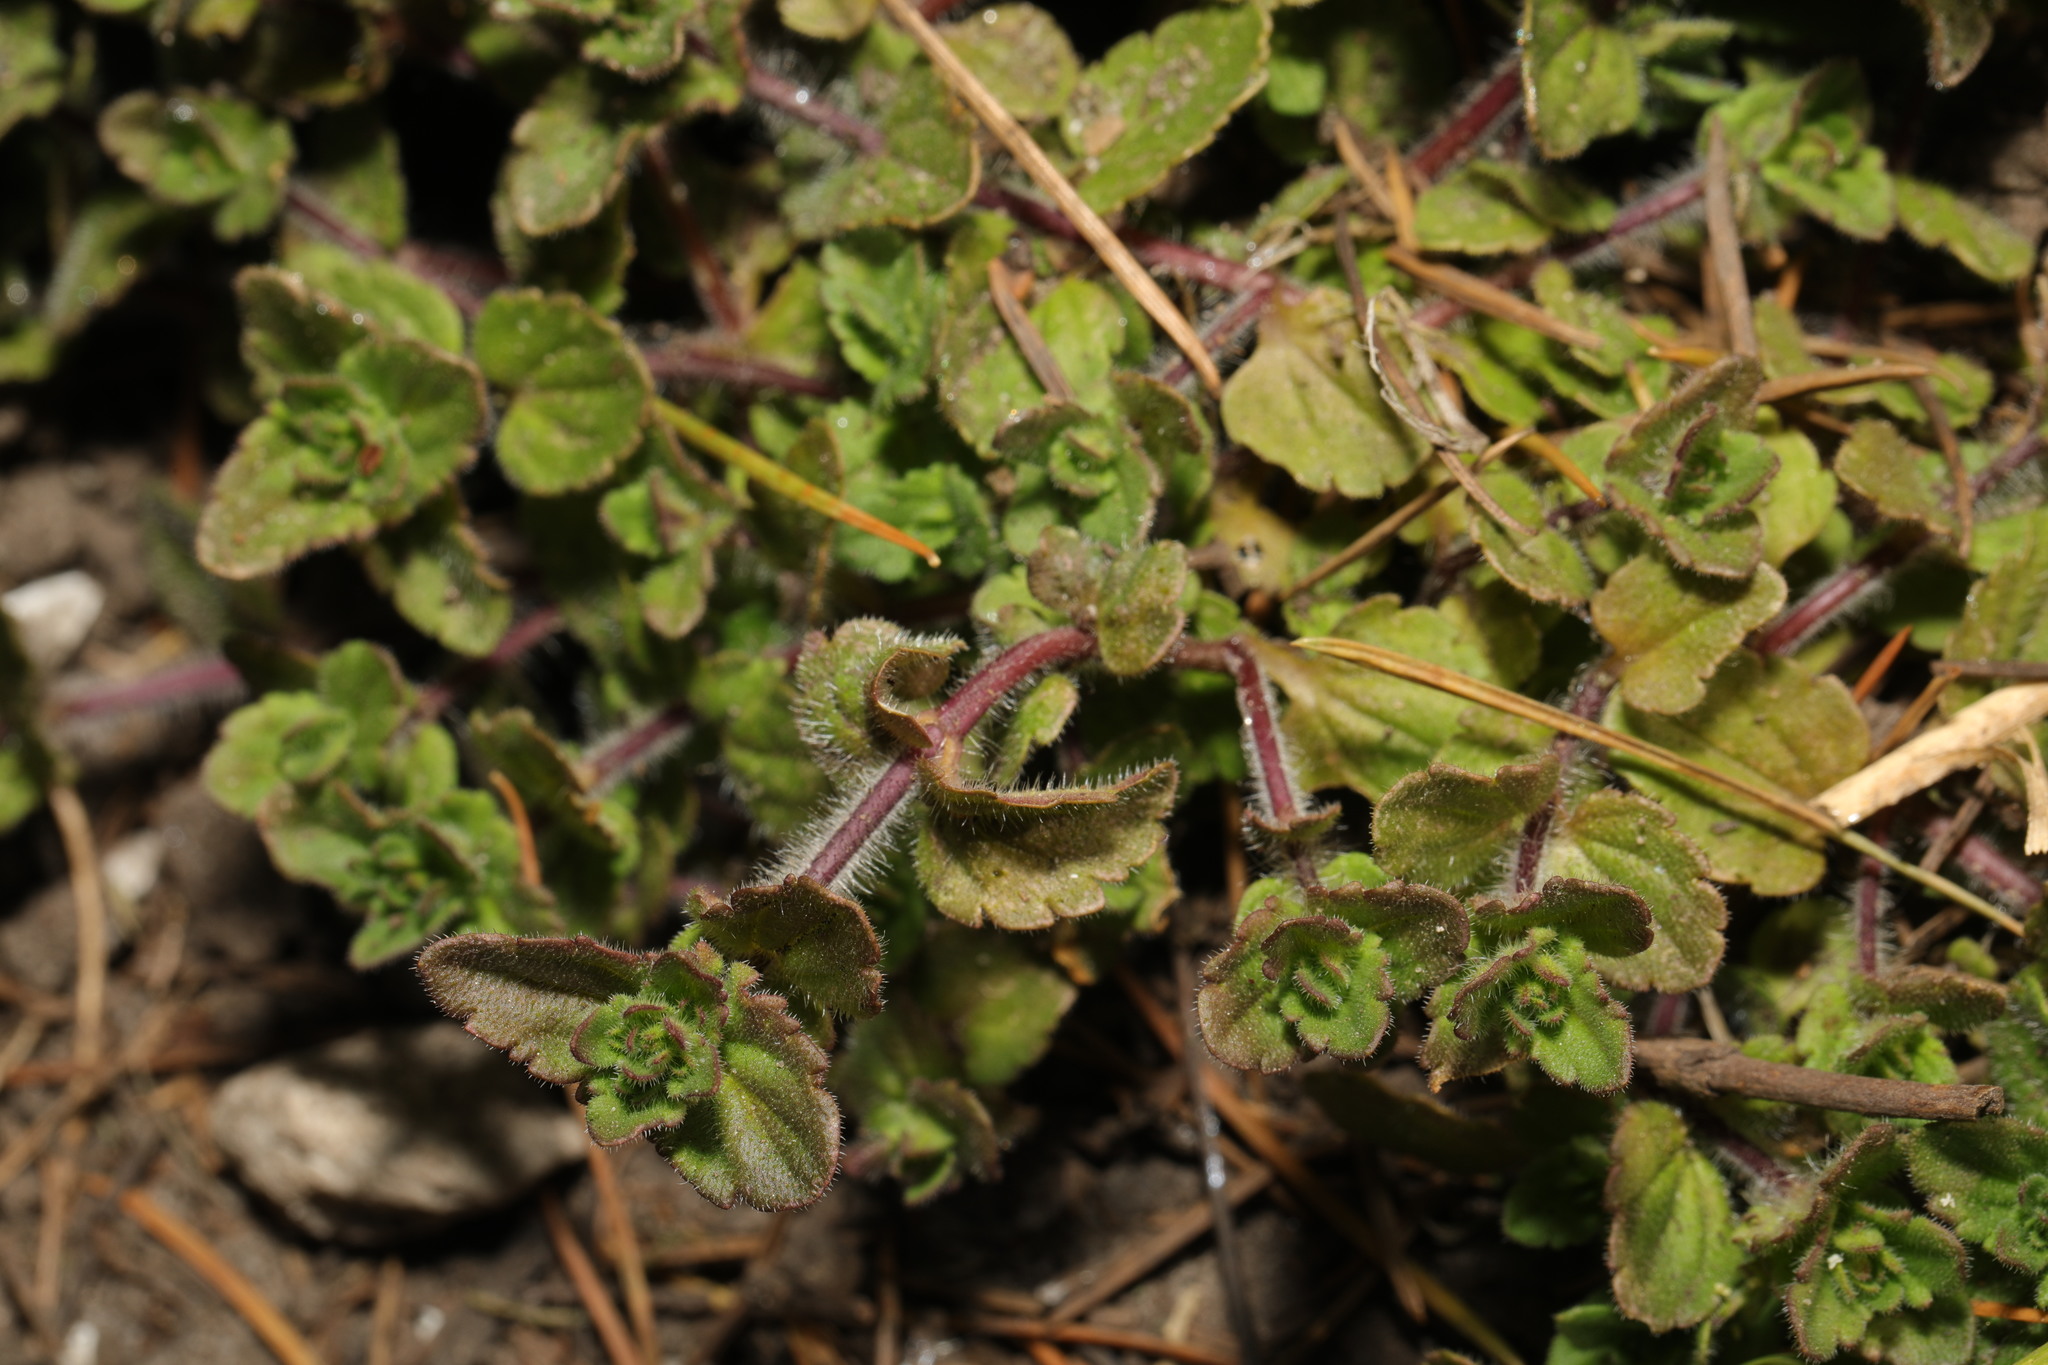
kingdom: Plantae
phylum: Tracheophyta
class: Magnoliopsida
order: Lamiales
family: Plantaginaceae
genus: Veronica
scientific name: Veronica chamaedrys
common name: Germander speedwell
